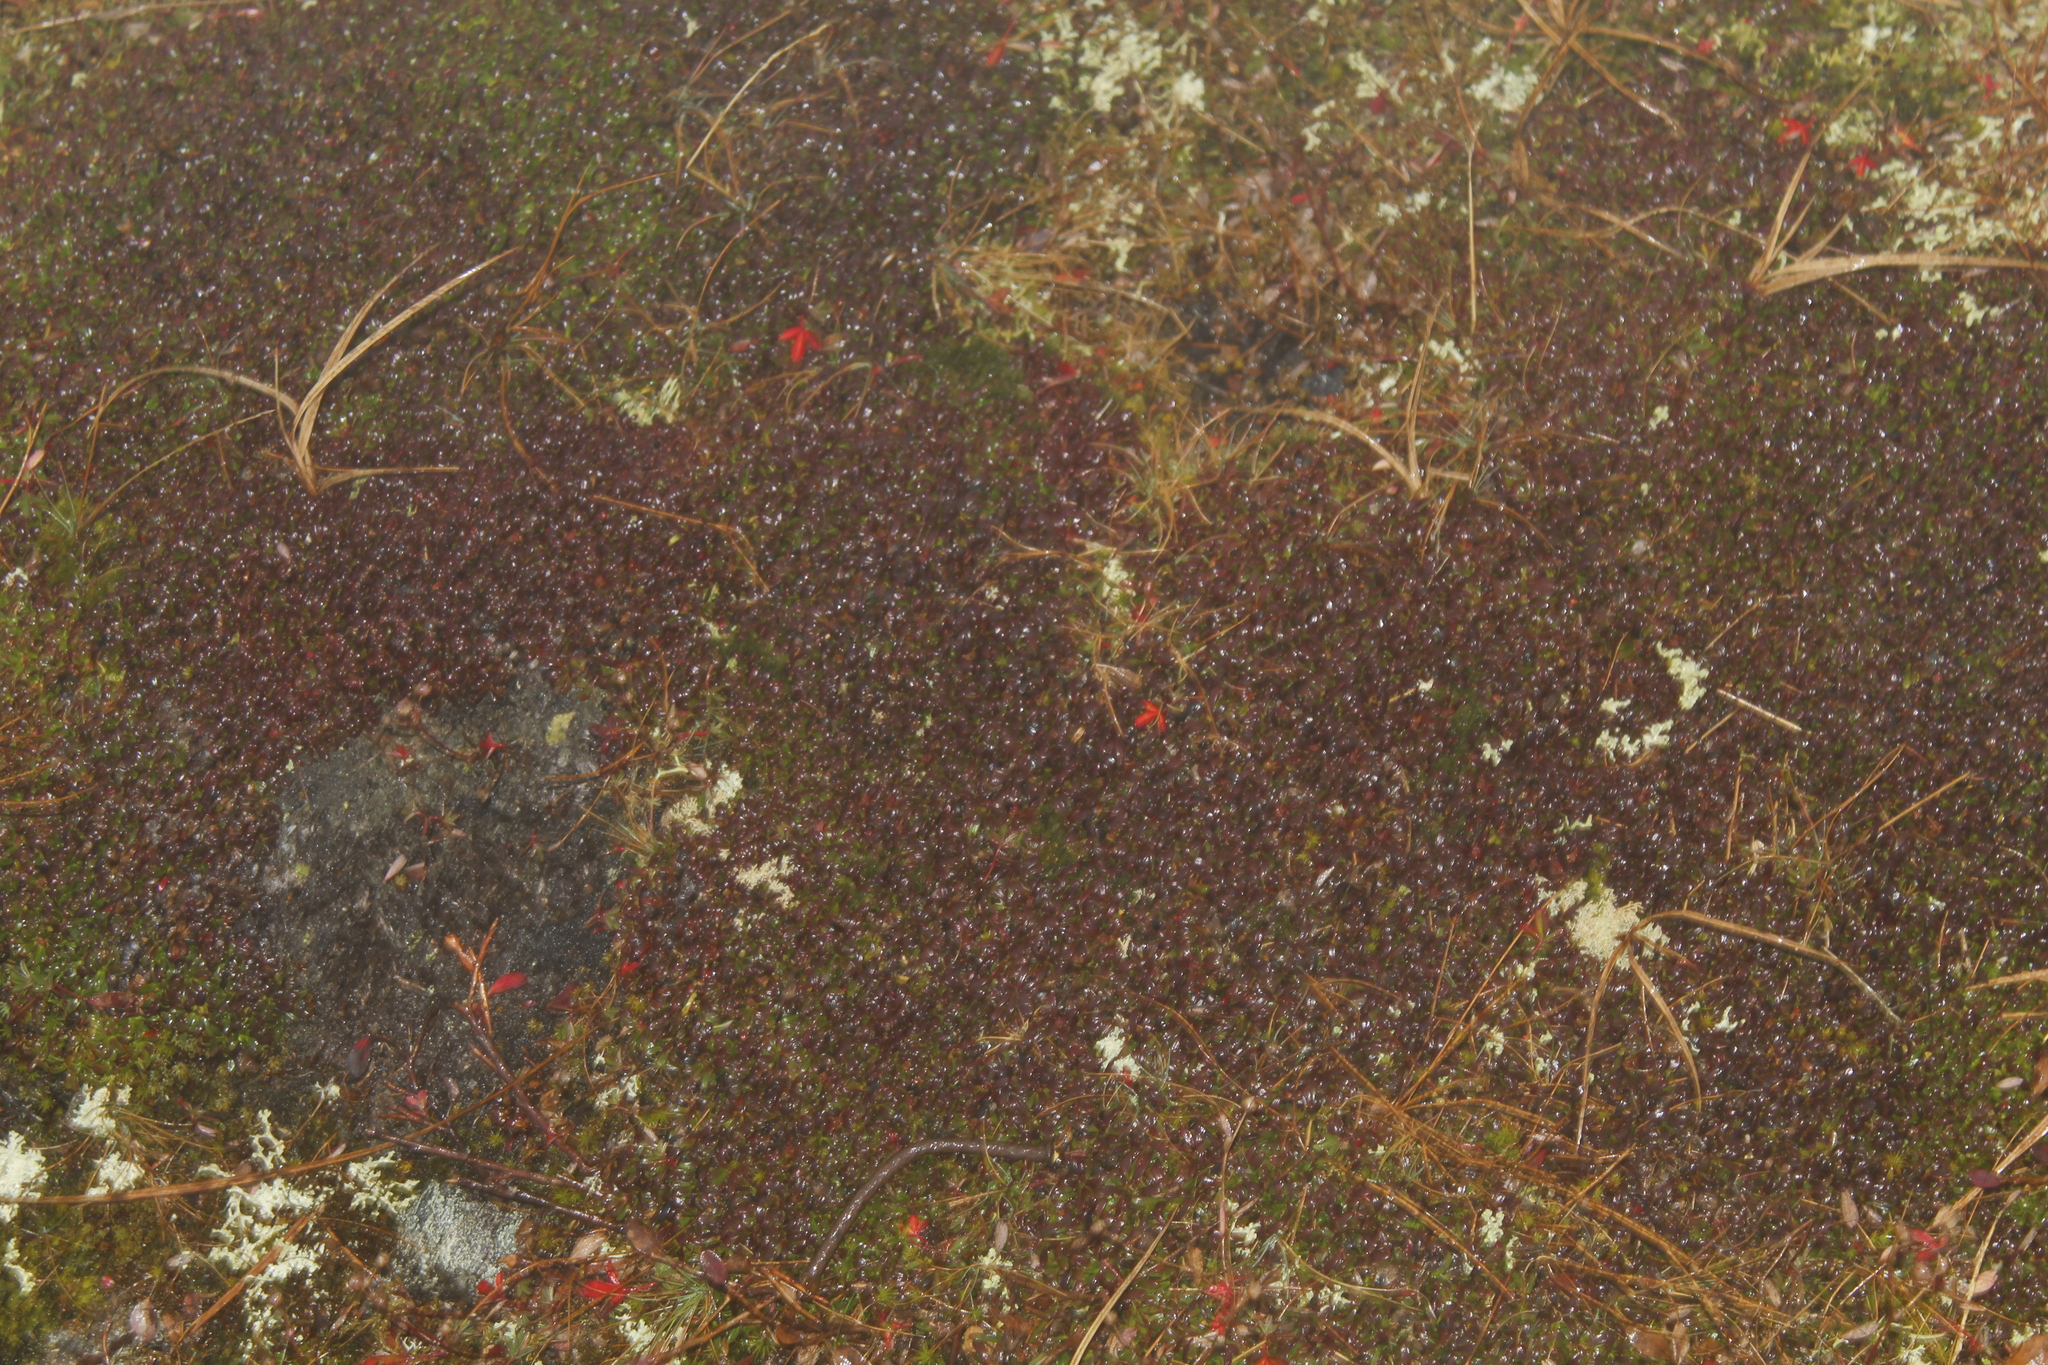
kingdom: Plantae
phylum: Tracheophyta
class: Magnoliopsida
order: Ericales
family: Diapensiaceae
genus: Diapensia
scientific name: Diapensia lapponica
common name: Diapensia
